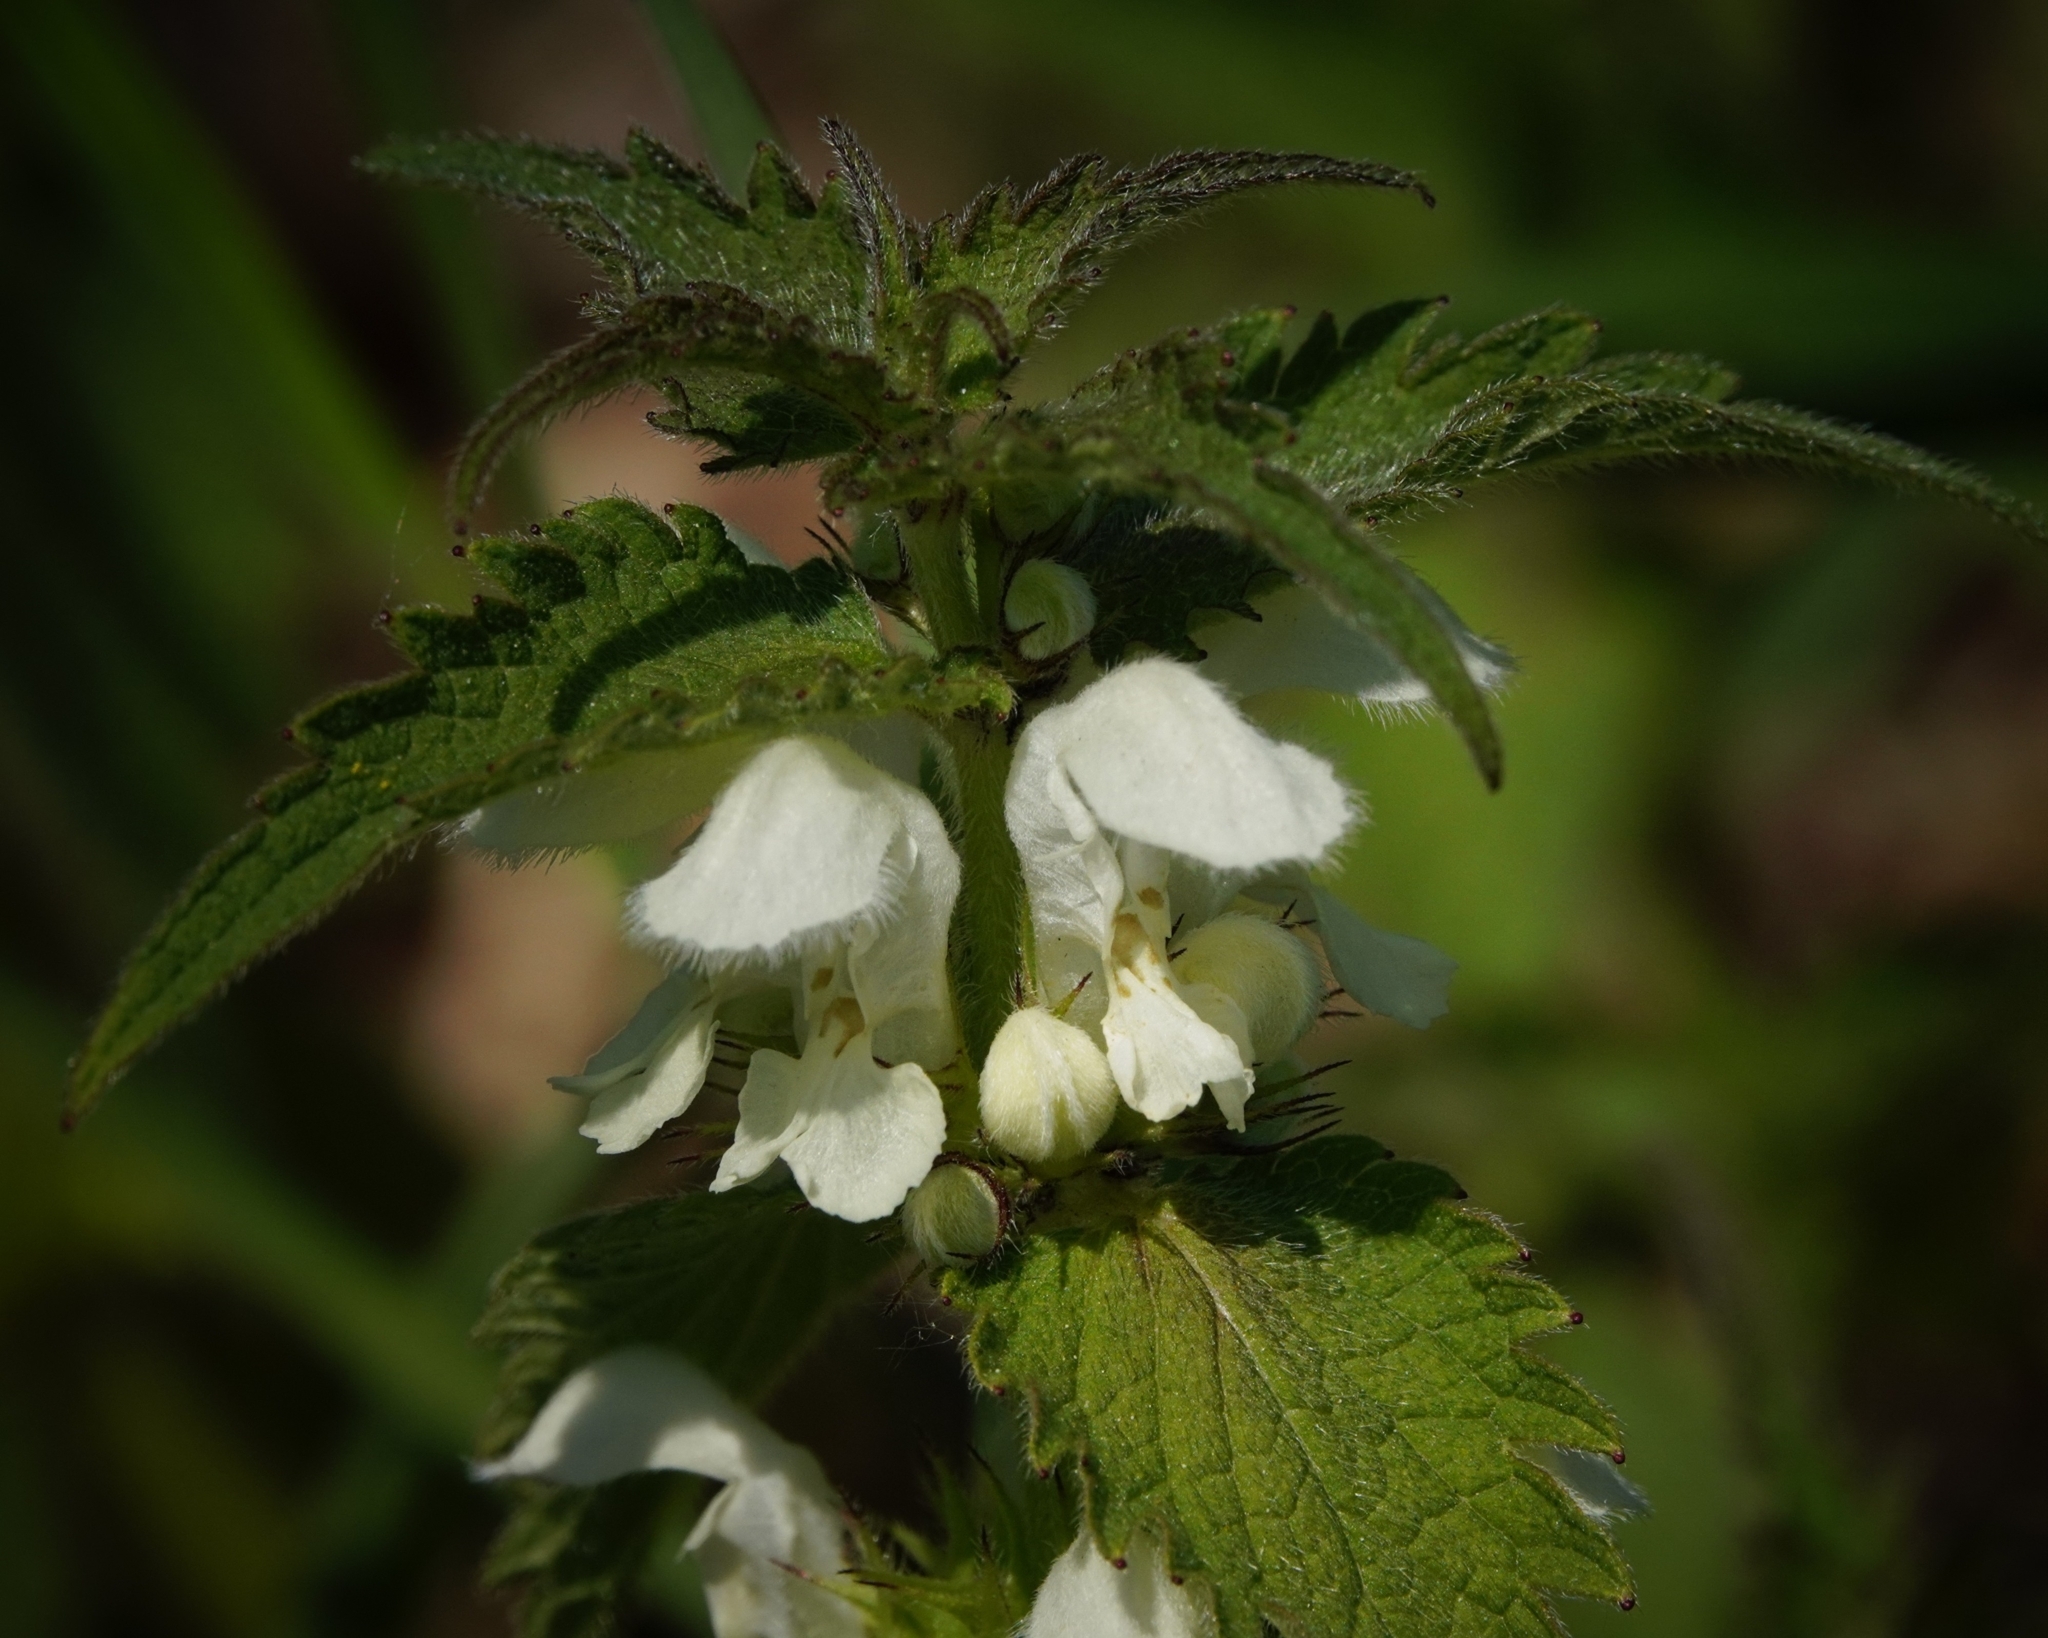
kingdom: Plantae
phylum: Tracheophyta
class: Magnoliopsida
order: Lamiales
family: Lamiaceae
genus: Lamium
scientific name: Lamium album
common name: White dead-nettle
